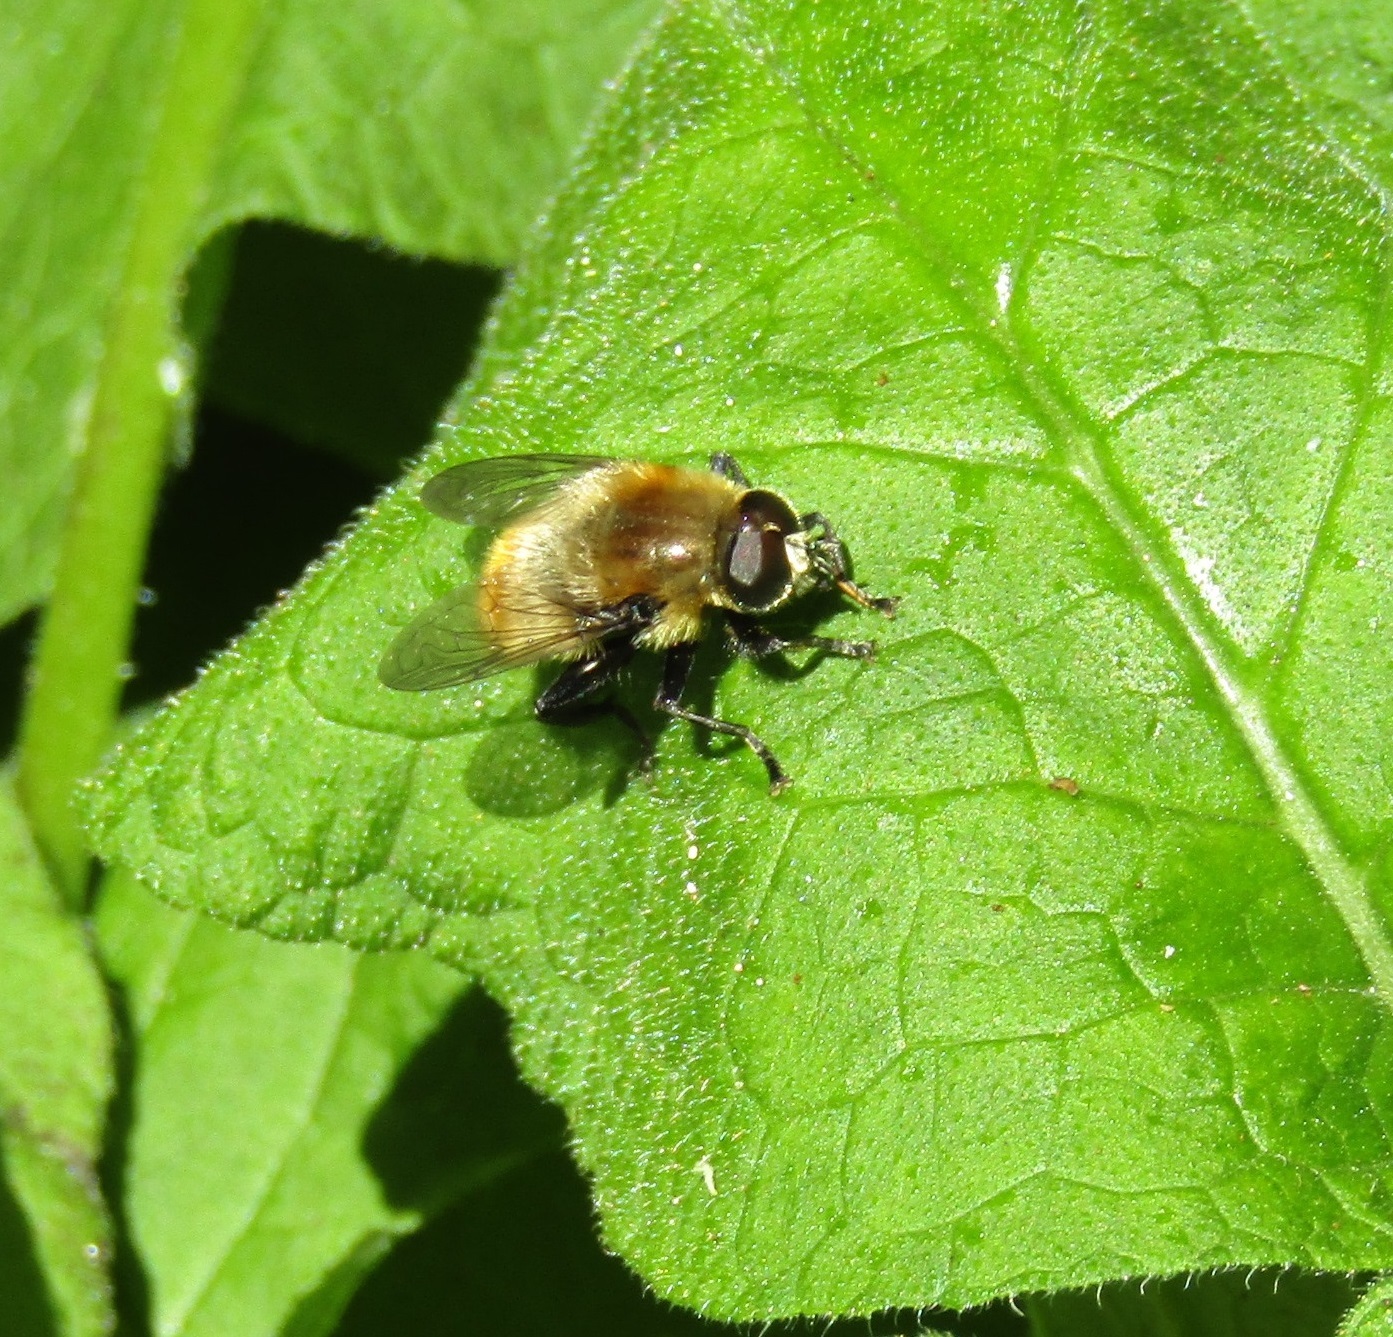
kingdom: Animalia
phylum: Arthropoda
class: Insecta
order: Diptera
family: Syrphidae
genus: Merodon
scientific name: Merodon equestris
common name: Greater bulb-fly
